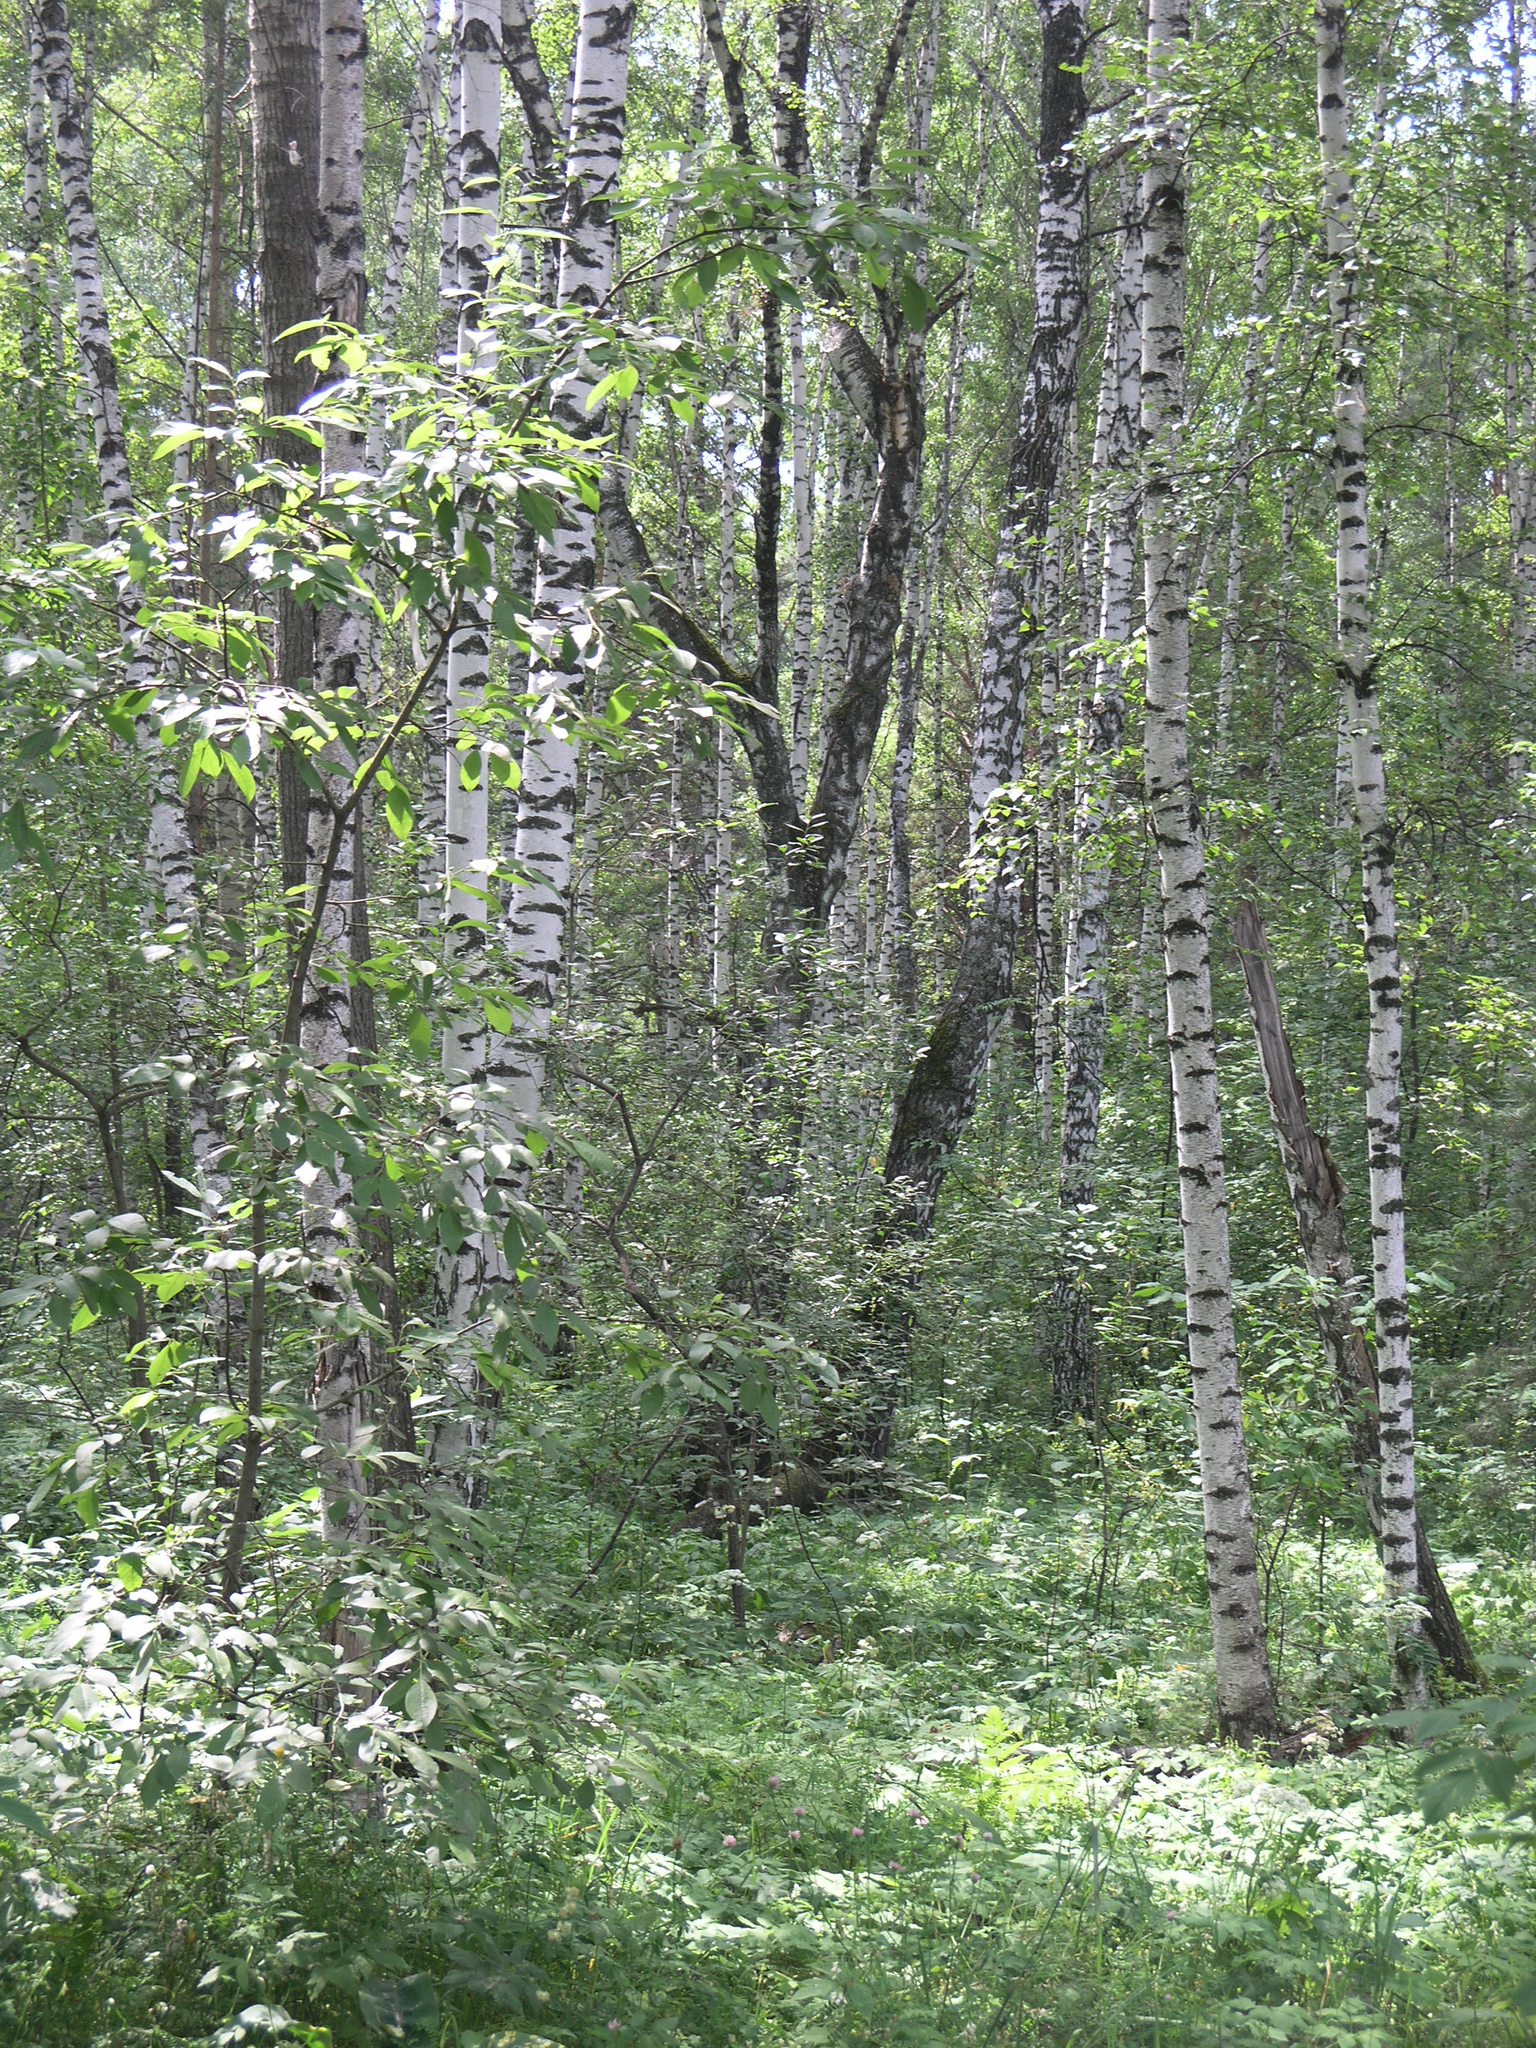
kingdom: Plantae
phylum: Tracheophyta
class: Magnoliopsida
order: Fagales
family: Betulaceae
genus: Betula
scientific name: Betula pendula
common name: Silver birch
